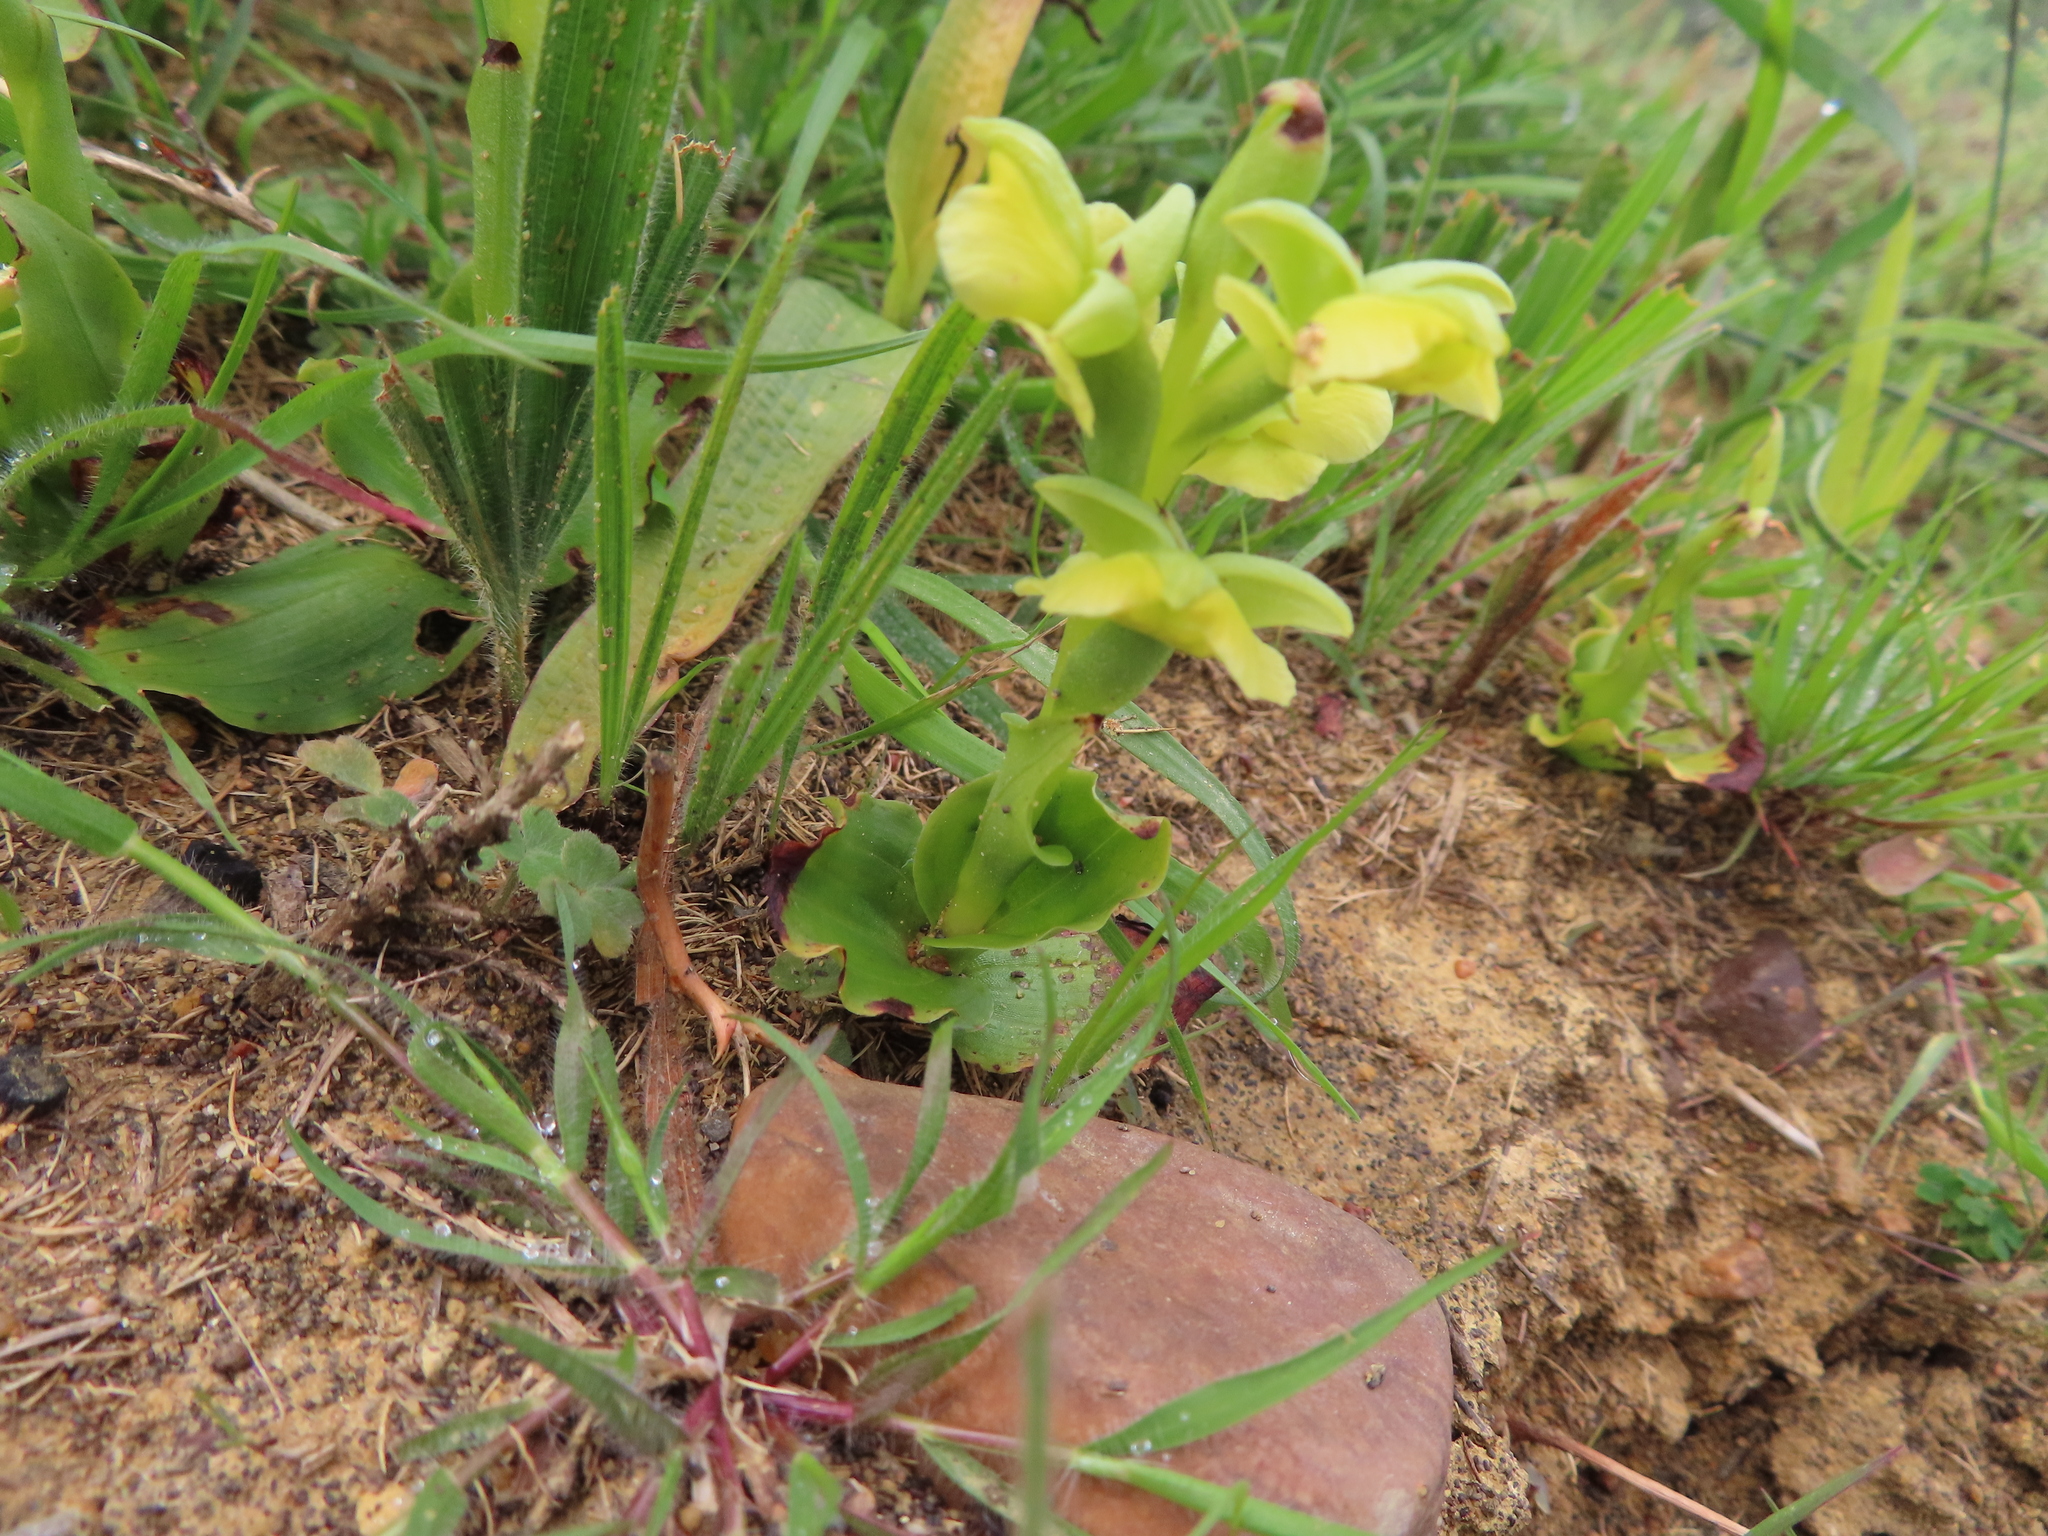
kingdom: Plantae
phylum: Tracheophyta
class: Liliopsida
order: Asparagales
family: Orchidaceae
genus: Pterygodium
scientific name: Pterygodium caffrum
